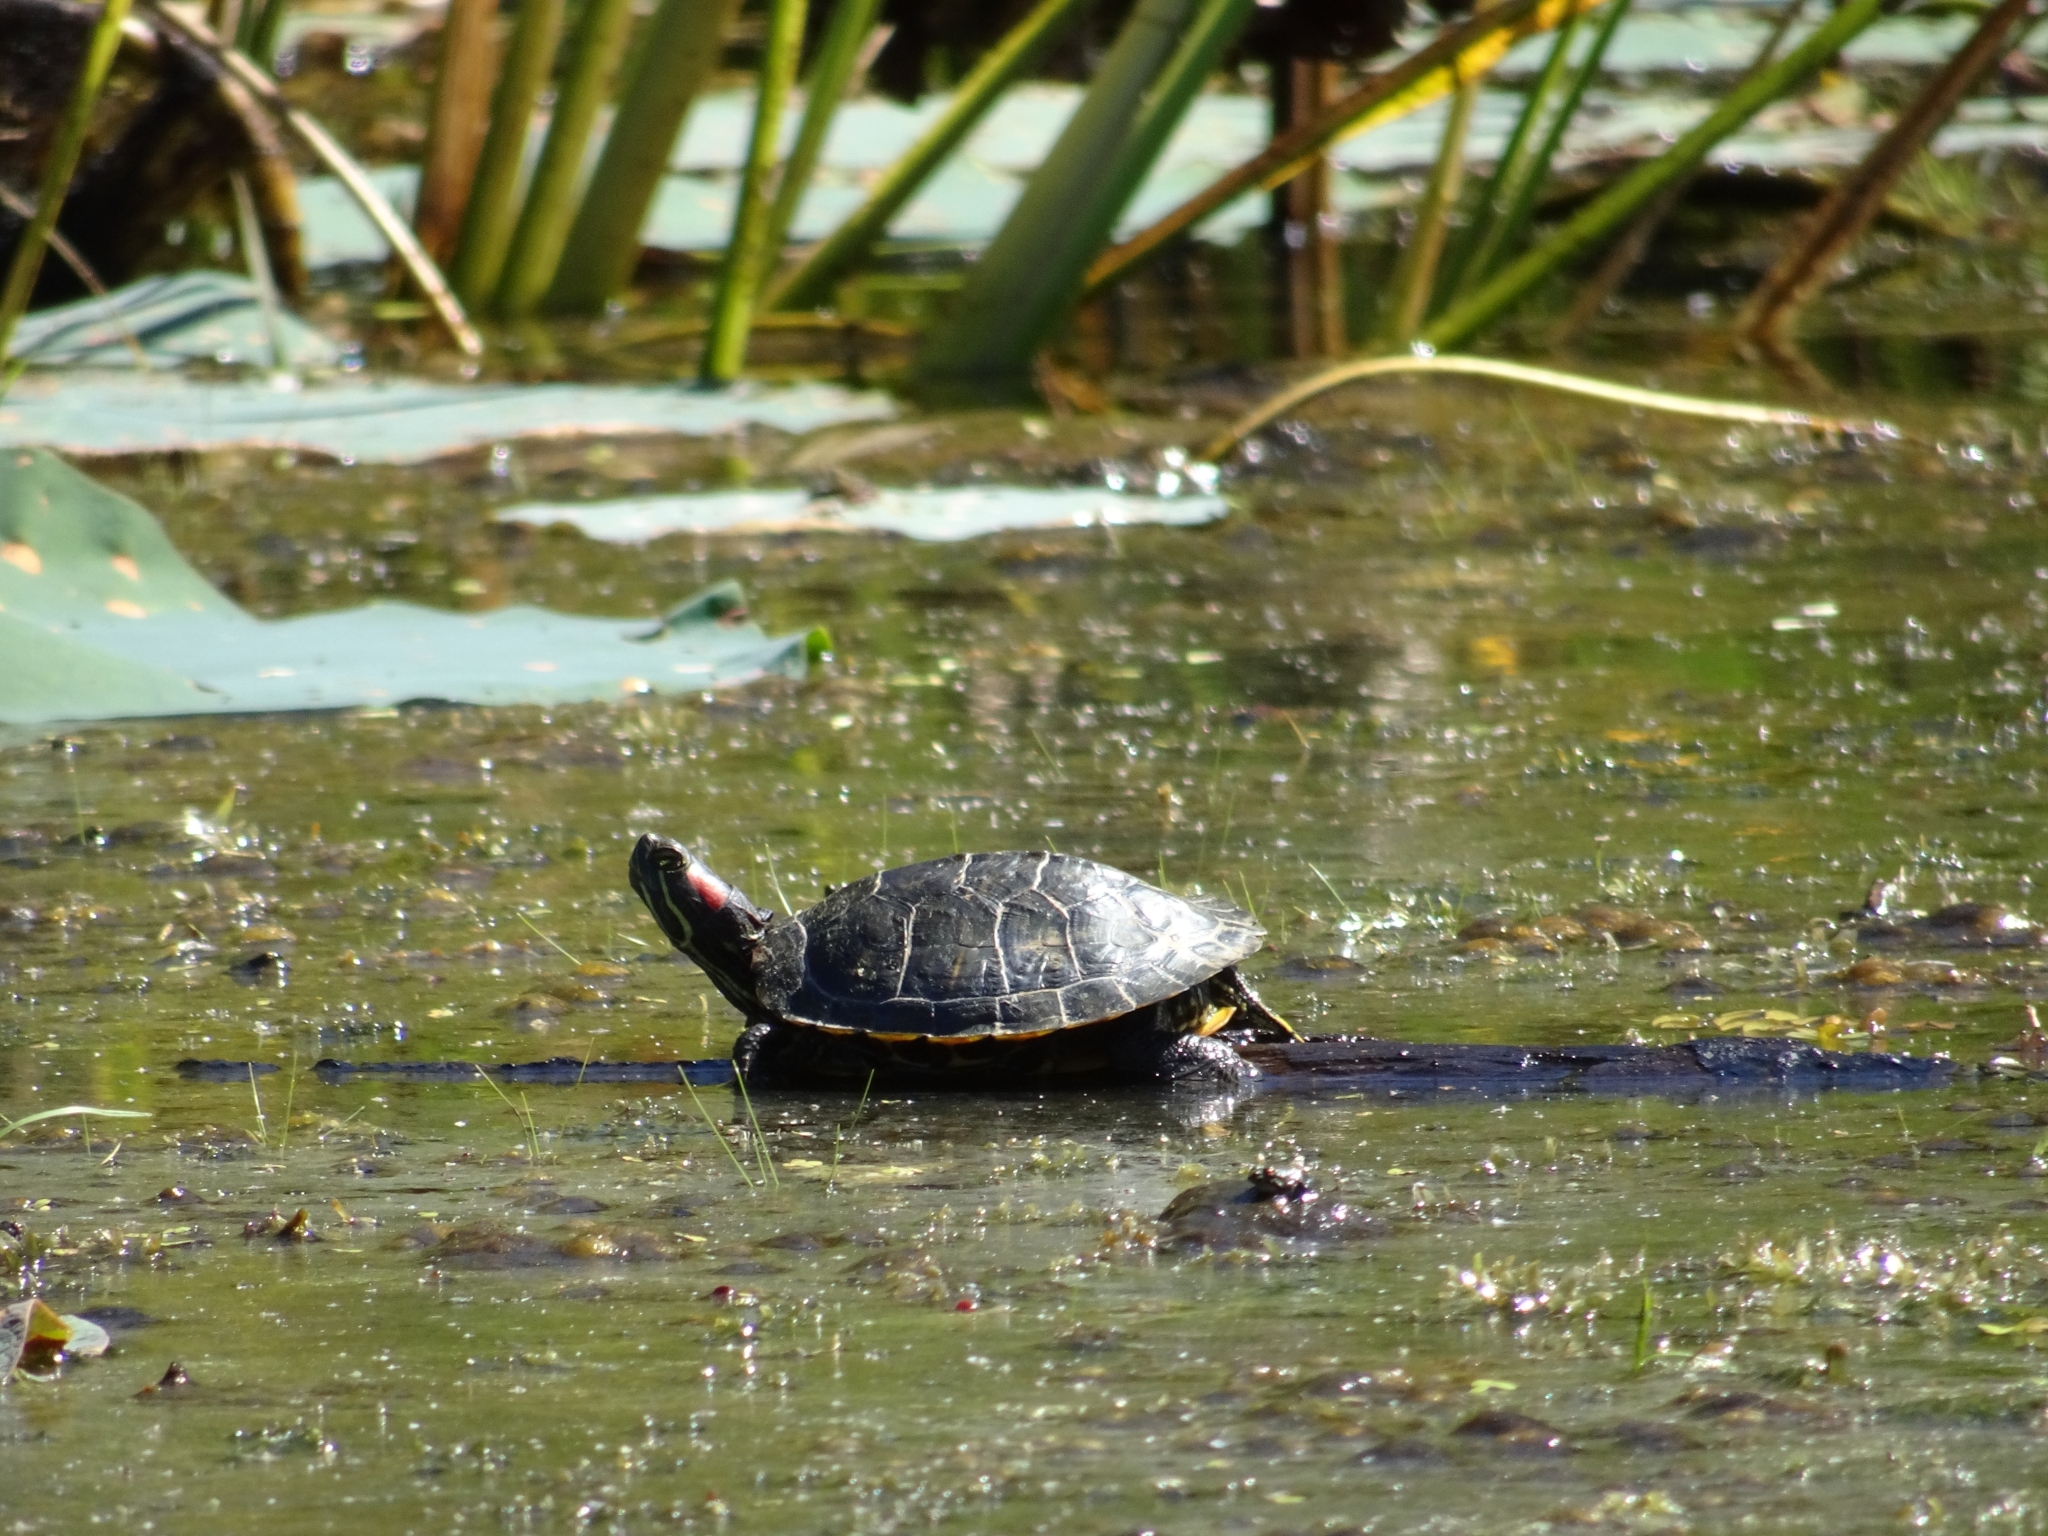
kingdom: Animalia
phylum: Chordata
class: Testudines
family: Emydidae
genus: Trachemys
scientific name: Trachemys scripta
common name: Slider
